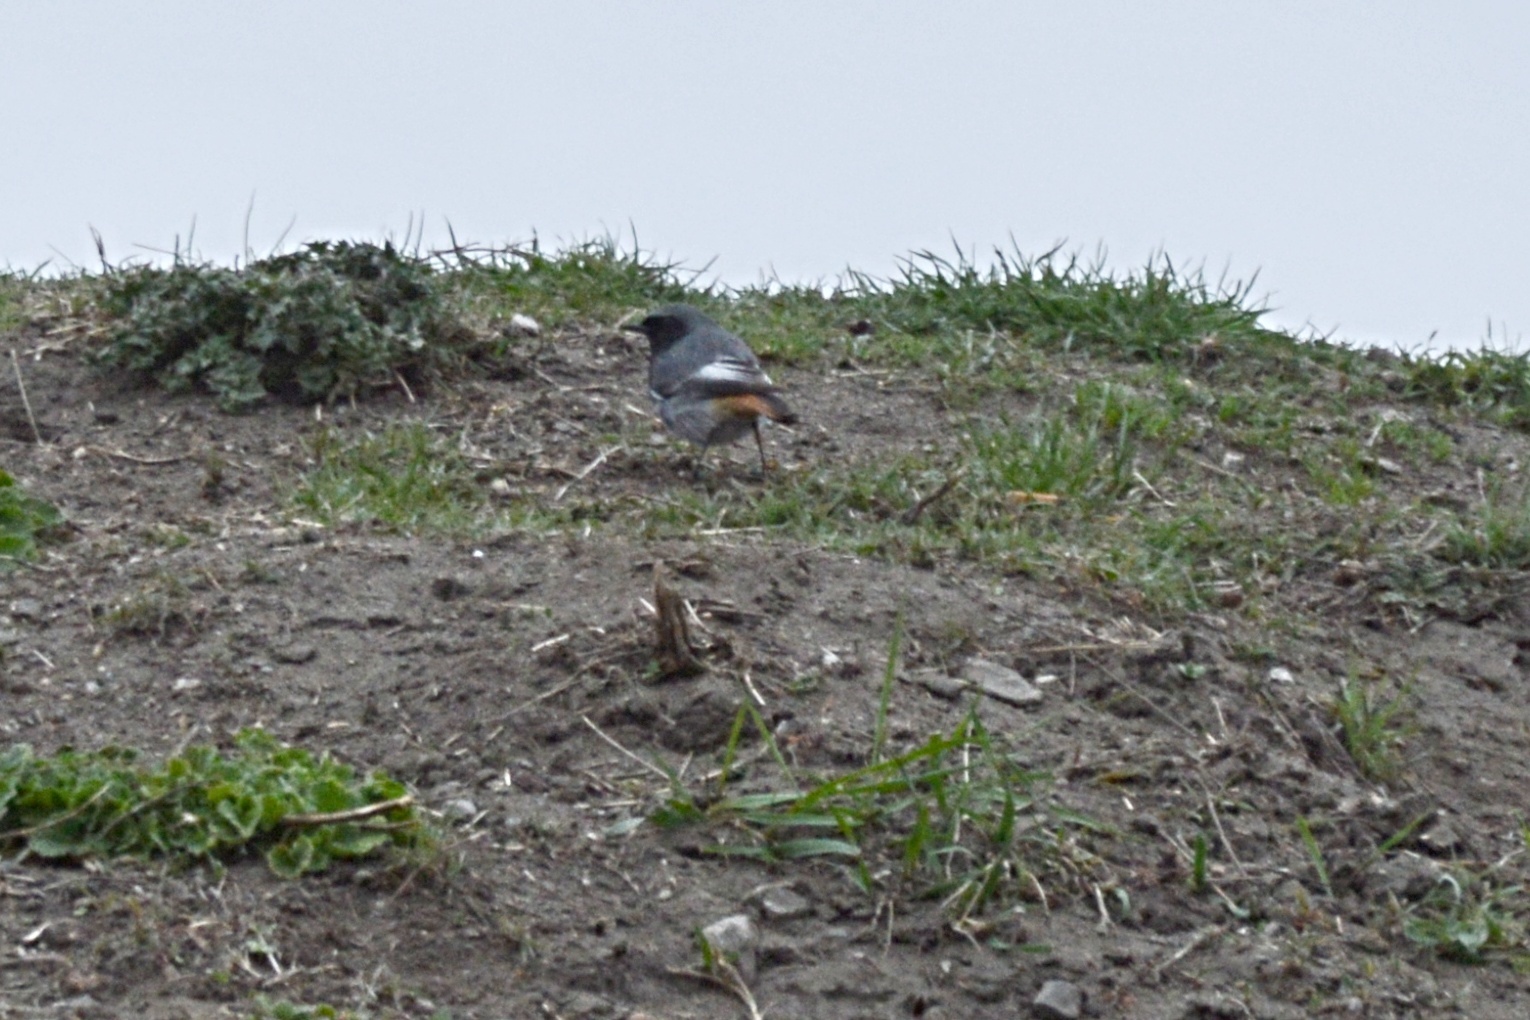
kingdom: Animalia
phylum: Chordata
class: Aves
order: Passeriformes
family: Muscicapidae
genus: Phoenicurus
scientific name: Phoenicurus ochruros
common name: Black redstart
